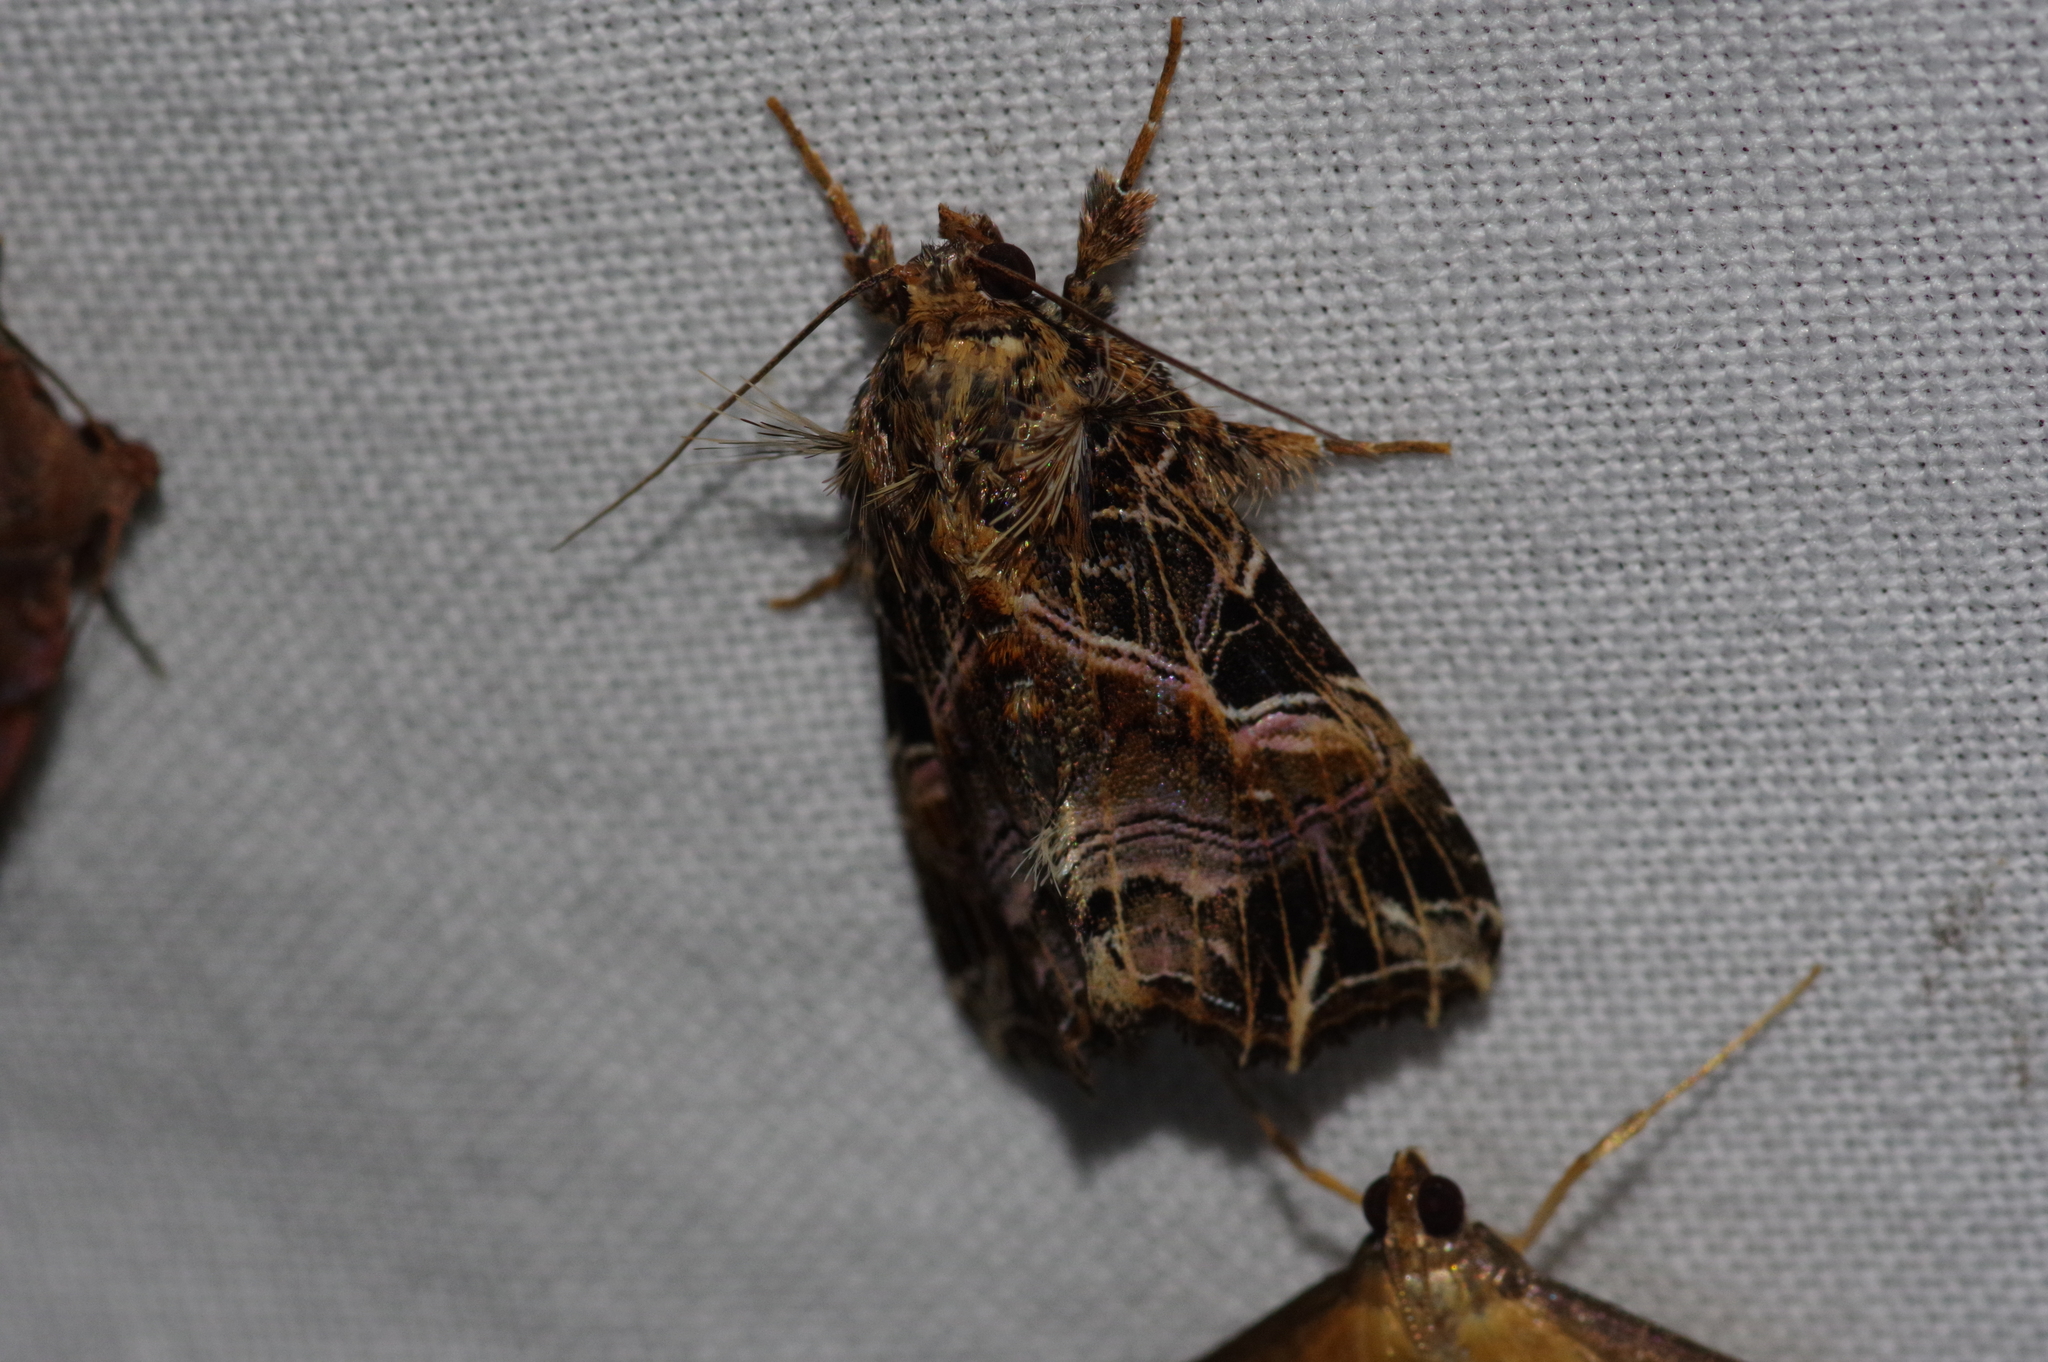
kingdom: Animalia
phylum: Arthropoda
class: Insecta
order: Lepidoptera
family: Noctuidae
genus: Callopistria
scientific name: Callopistria maillardi
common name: Cutworm
